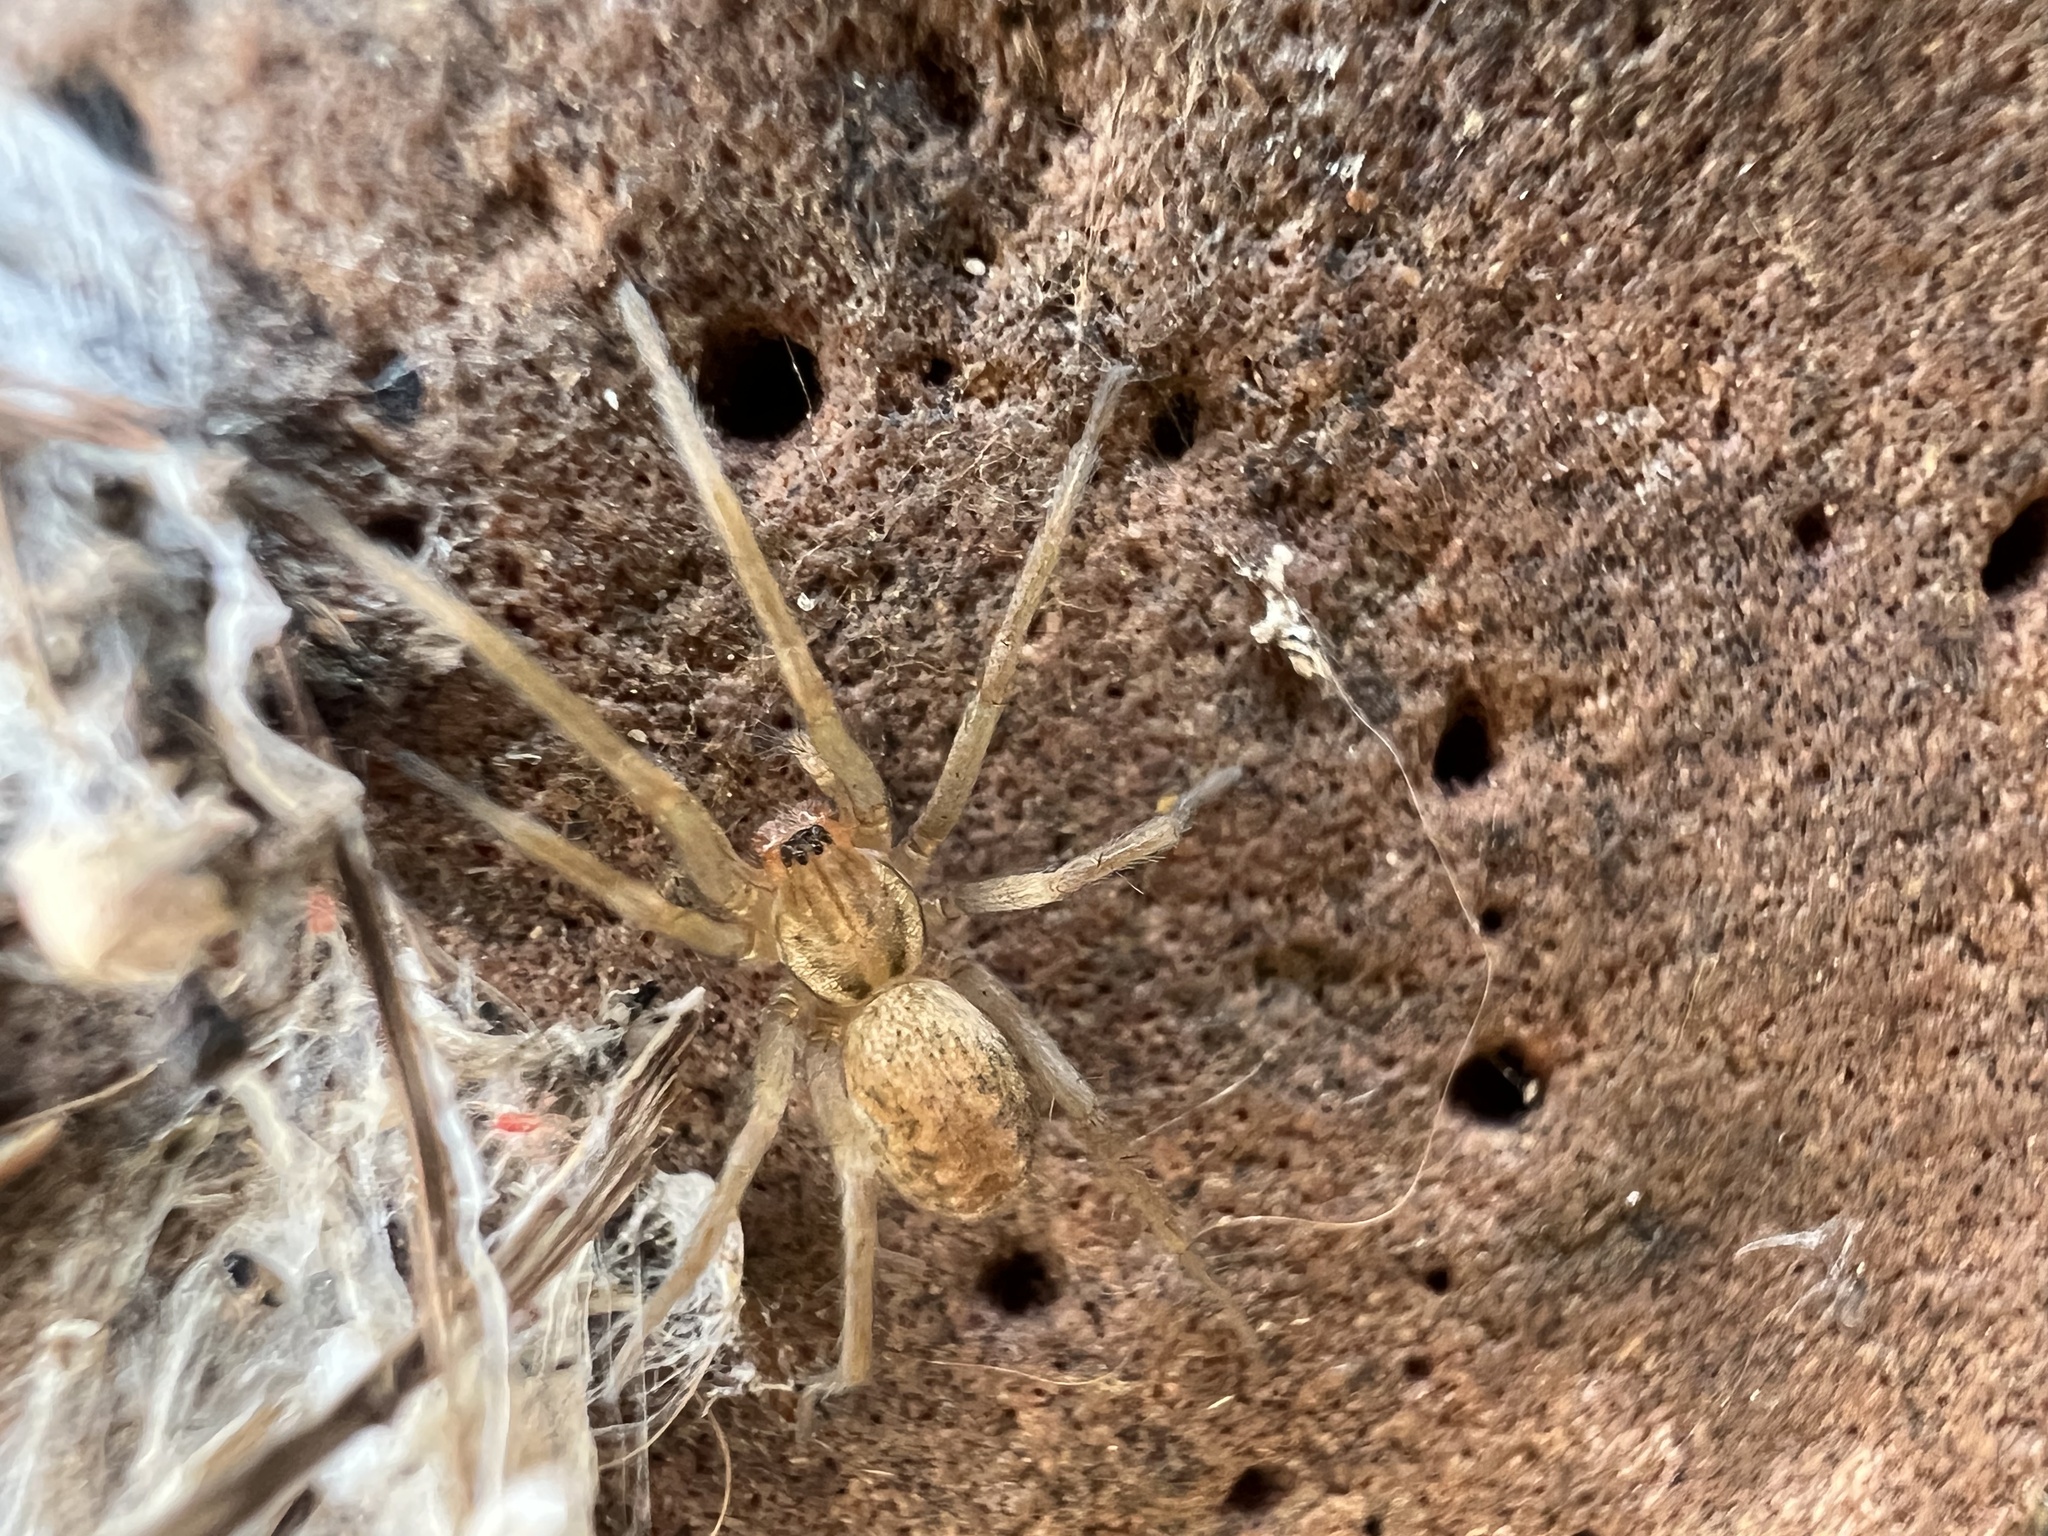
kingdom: Animalia
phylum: Arthropoda
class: Arachnida
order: Araneae
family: Agelenidae
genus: Eratigena
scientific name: Eratigena agrestis
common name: Hobo spider
